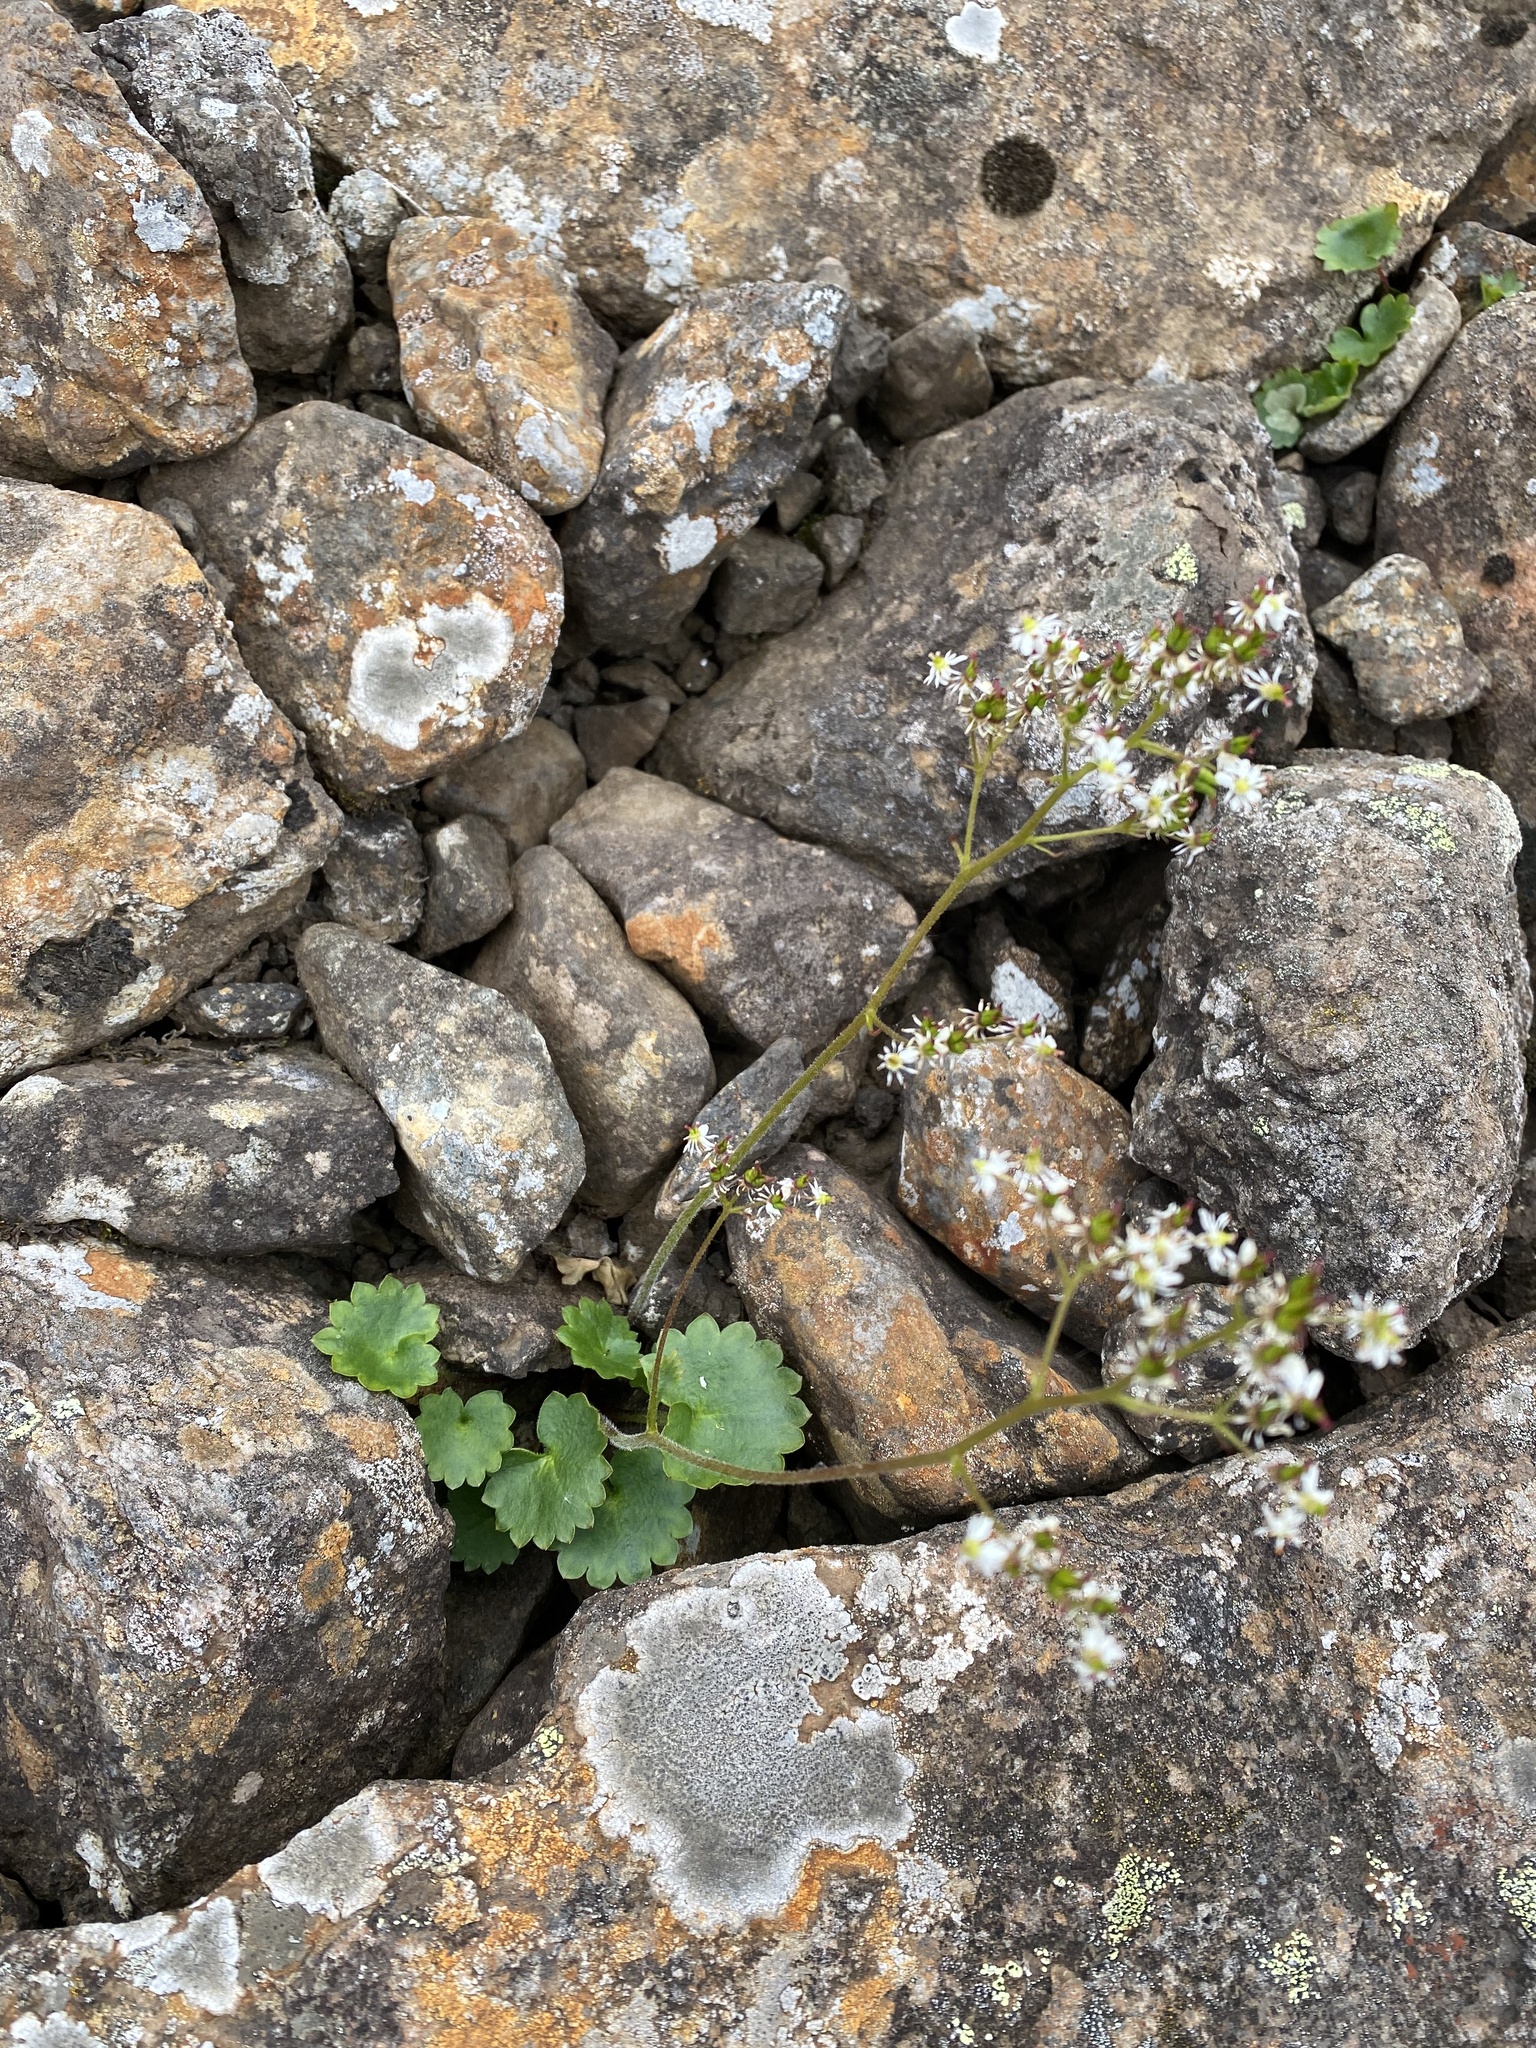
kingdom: Plantae
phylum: Tracheophyta
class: Magnoliopsida
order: Saxifragales
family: Saxifragaceae
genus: Micranthes
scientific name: Micranthes nelsoniana
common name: Nelson's saxifrage
